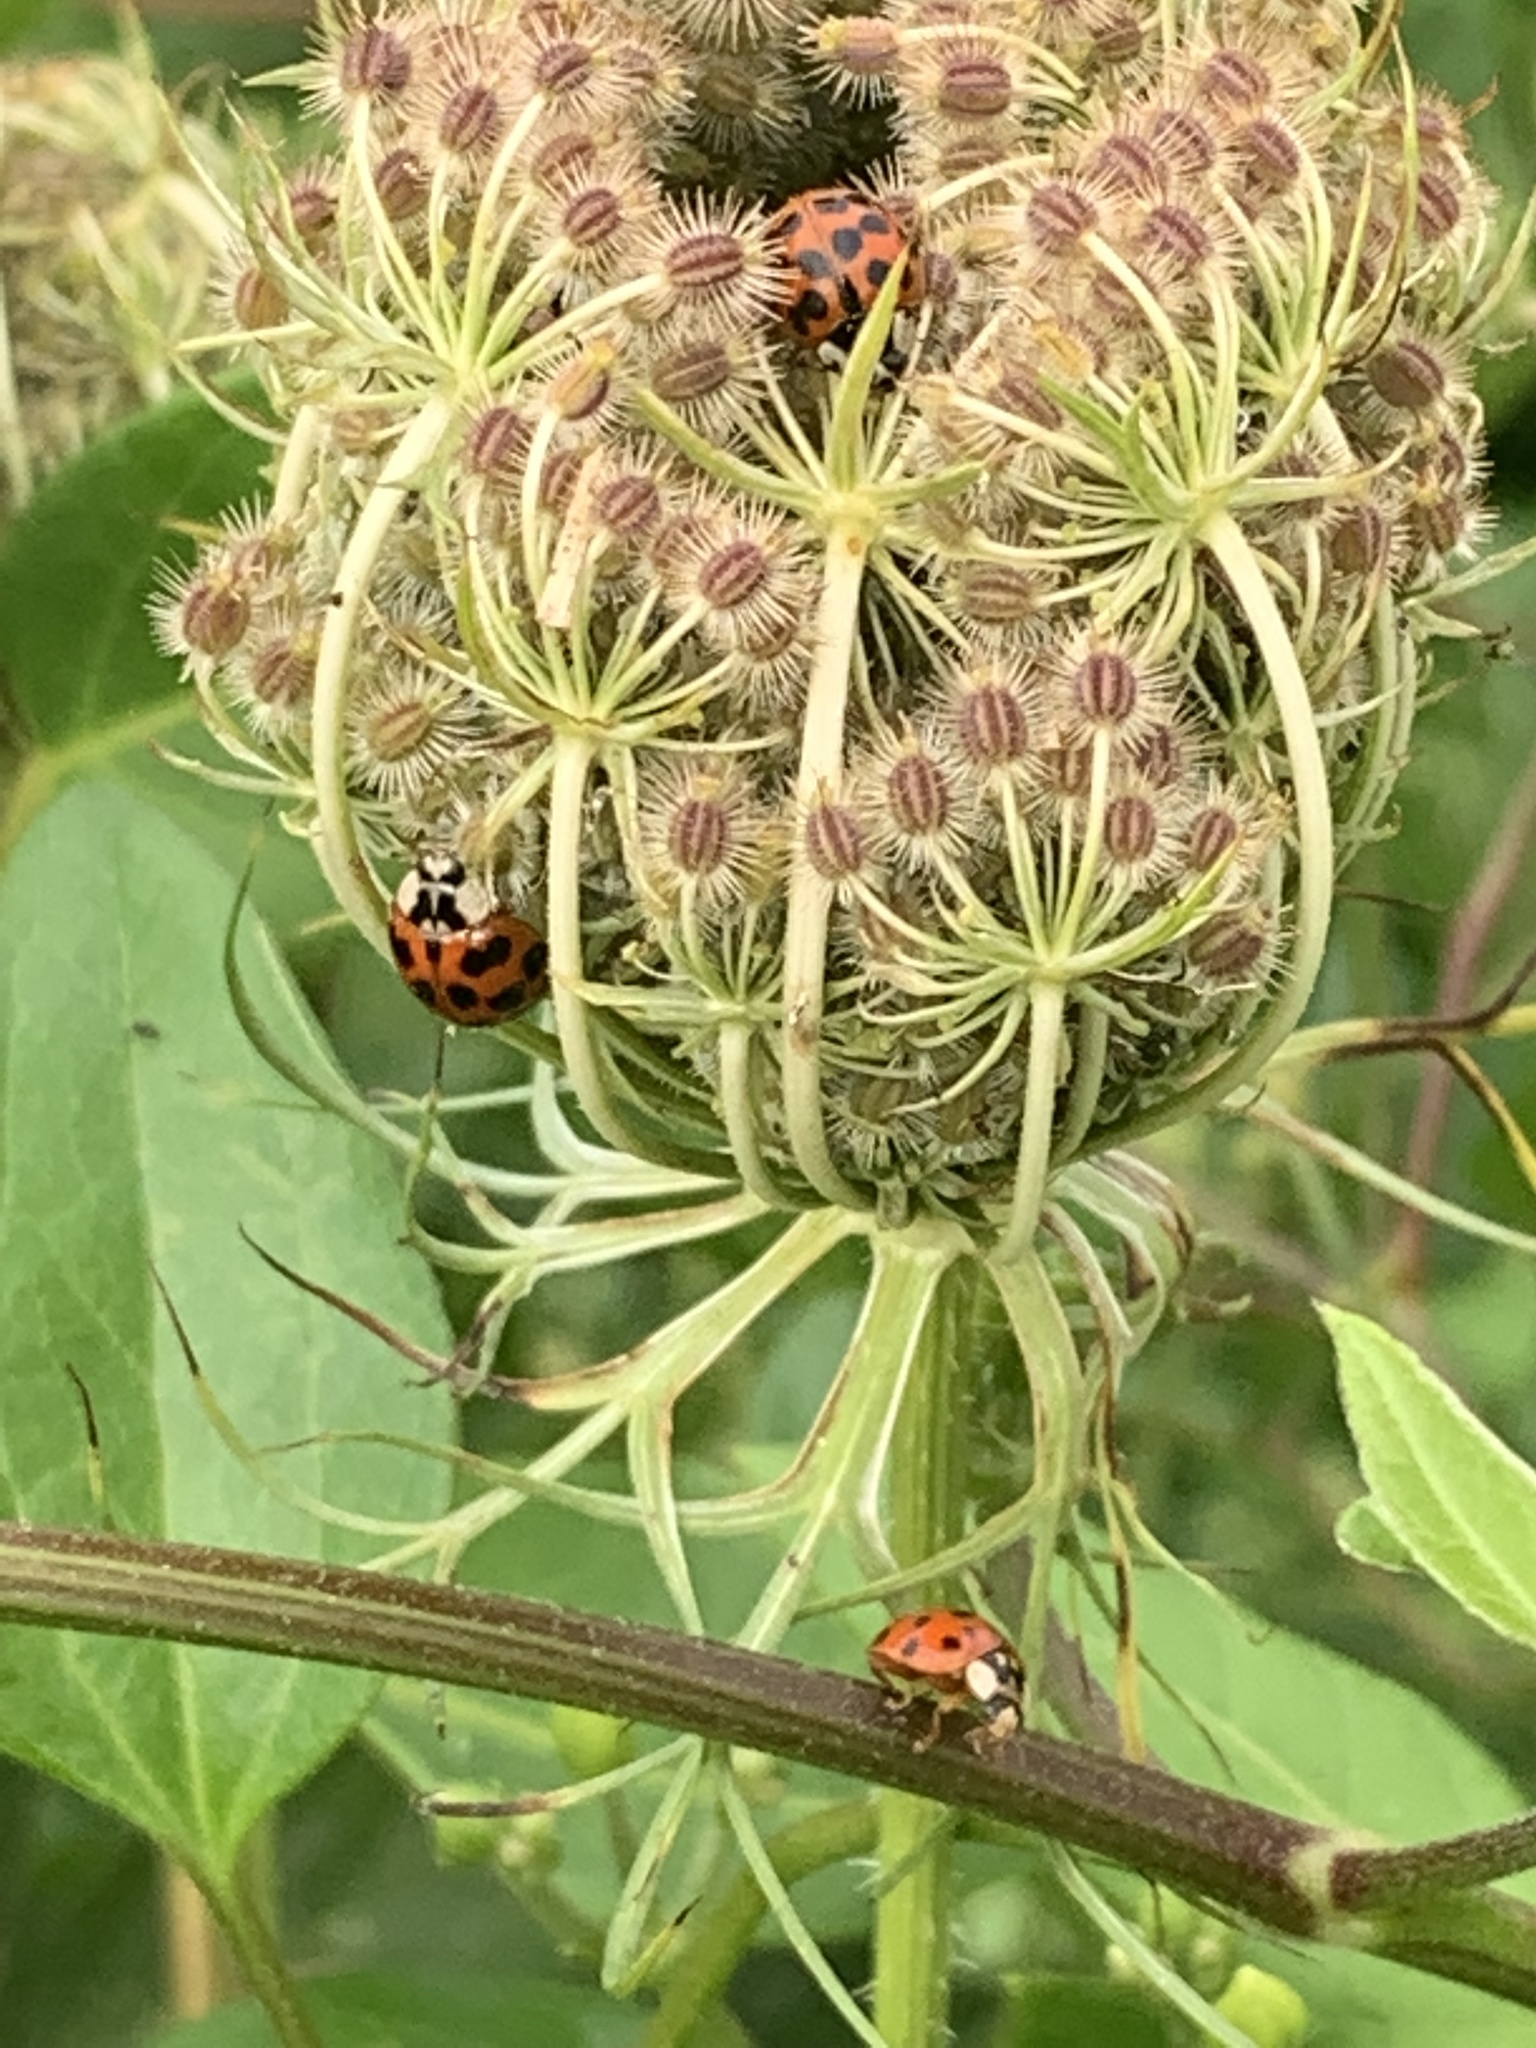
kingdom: Animalia
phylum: Arthropoda
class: Insecta
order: Coleoptera
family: Coccinellidae
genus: Harmonia
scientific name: Harmonia axyridis
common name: Harlequin ladybird
